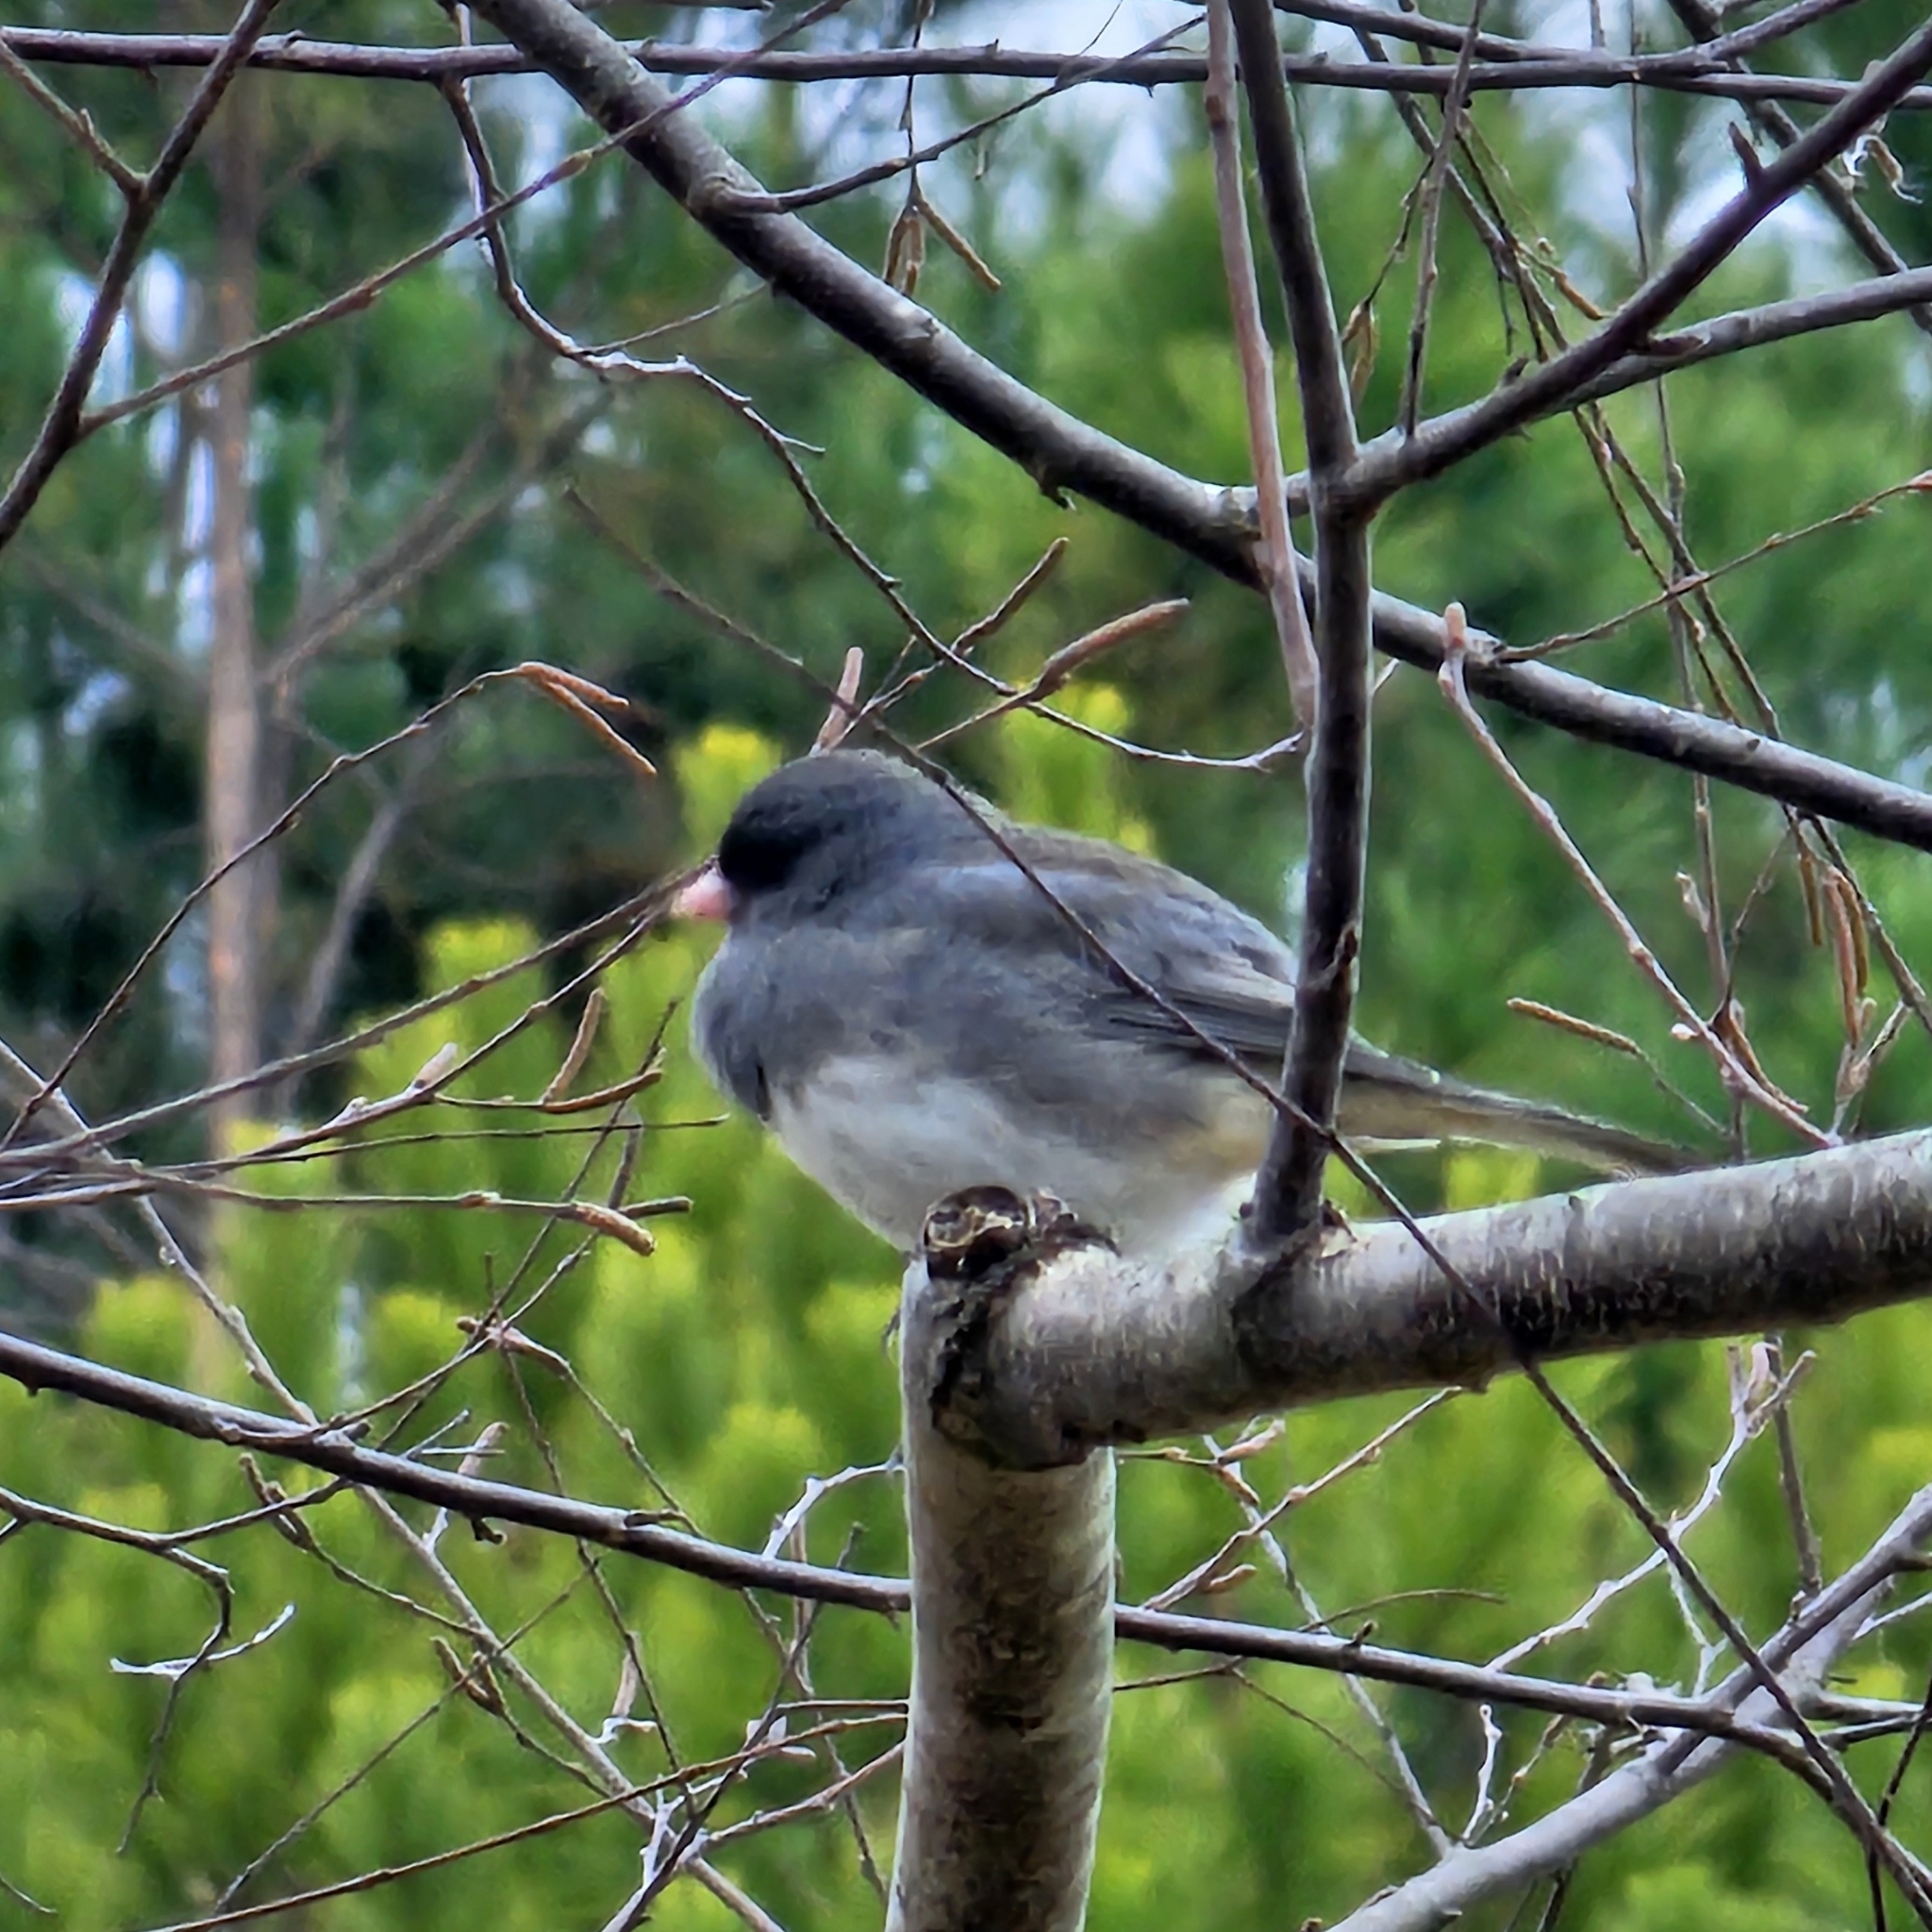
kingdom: Animalia
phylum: Chordata
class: Aves
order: Passeriformes
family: Passerellidae
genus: Junco
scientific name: Junco hyemalis
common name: Dark-eyed junco
